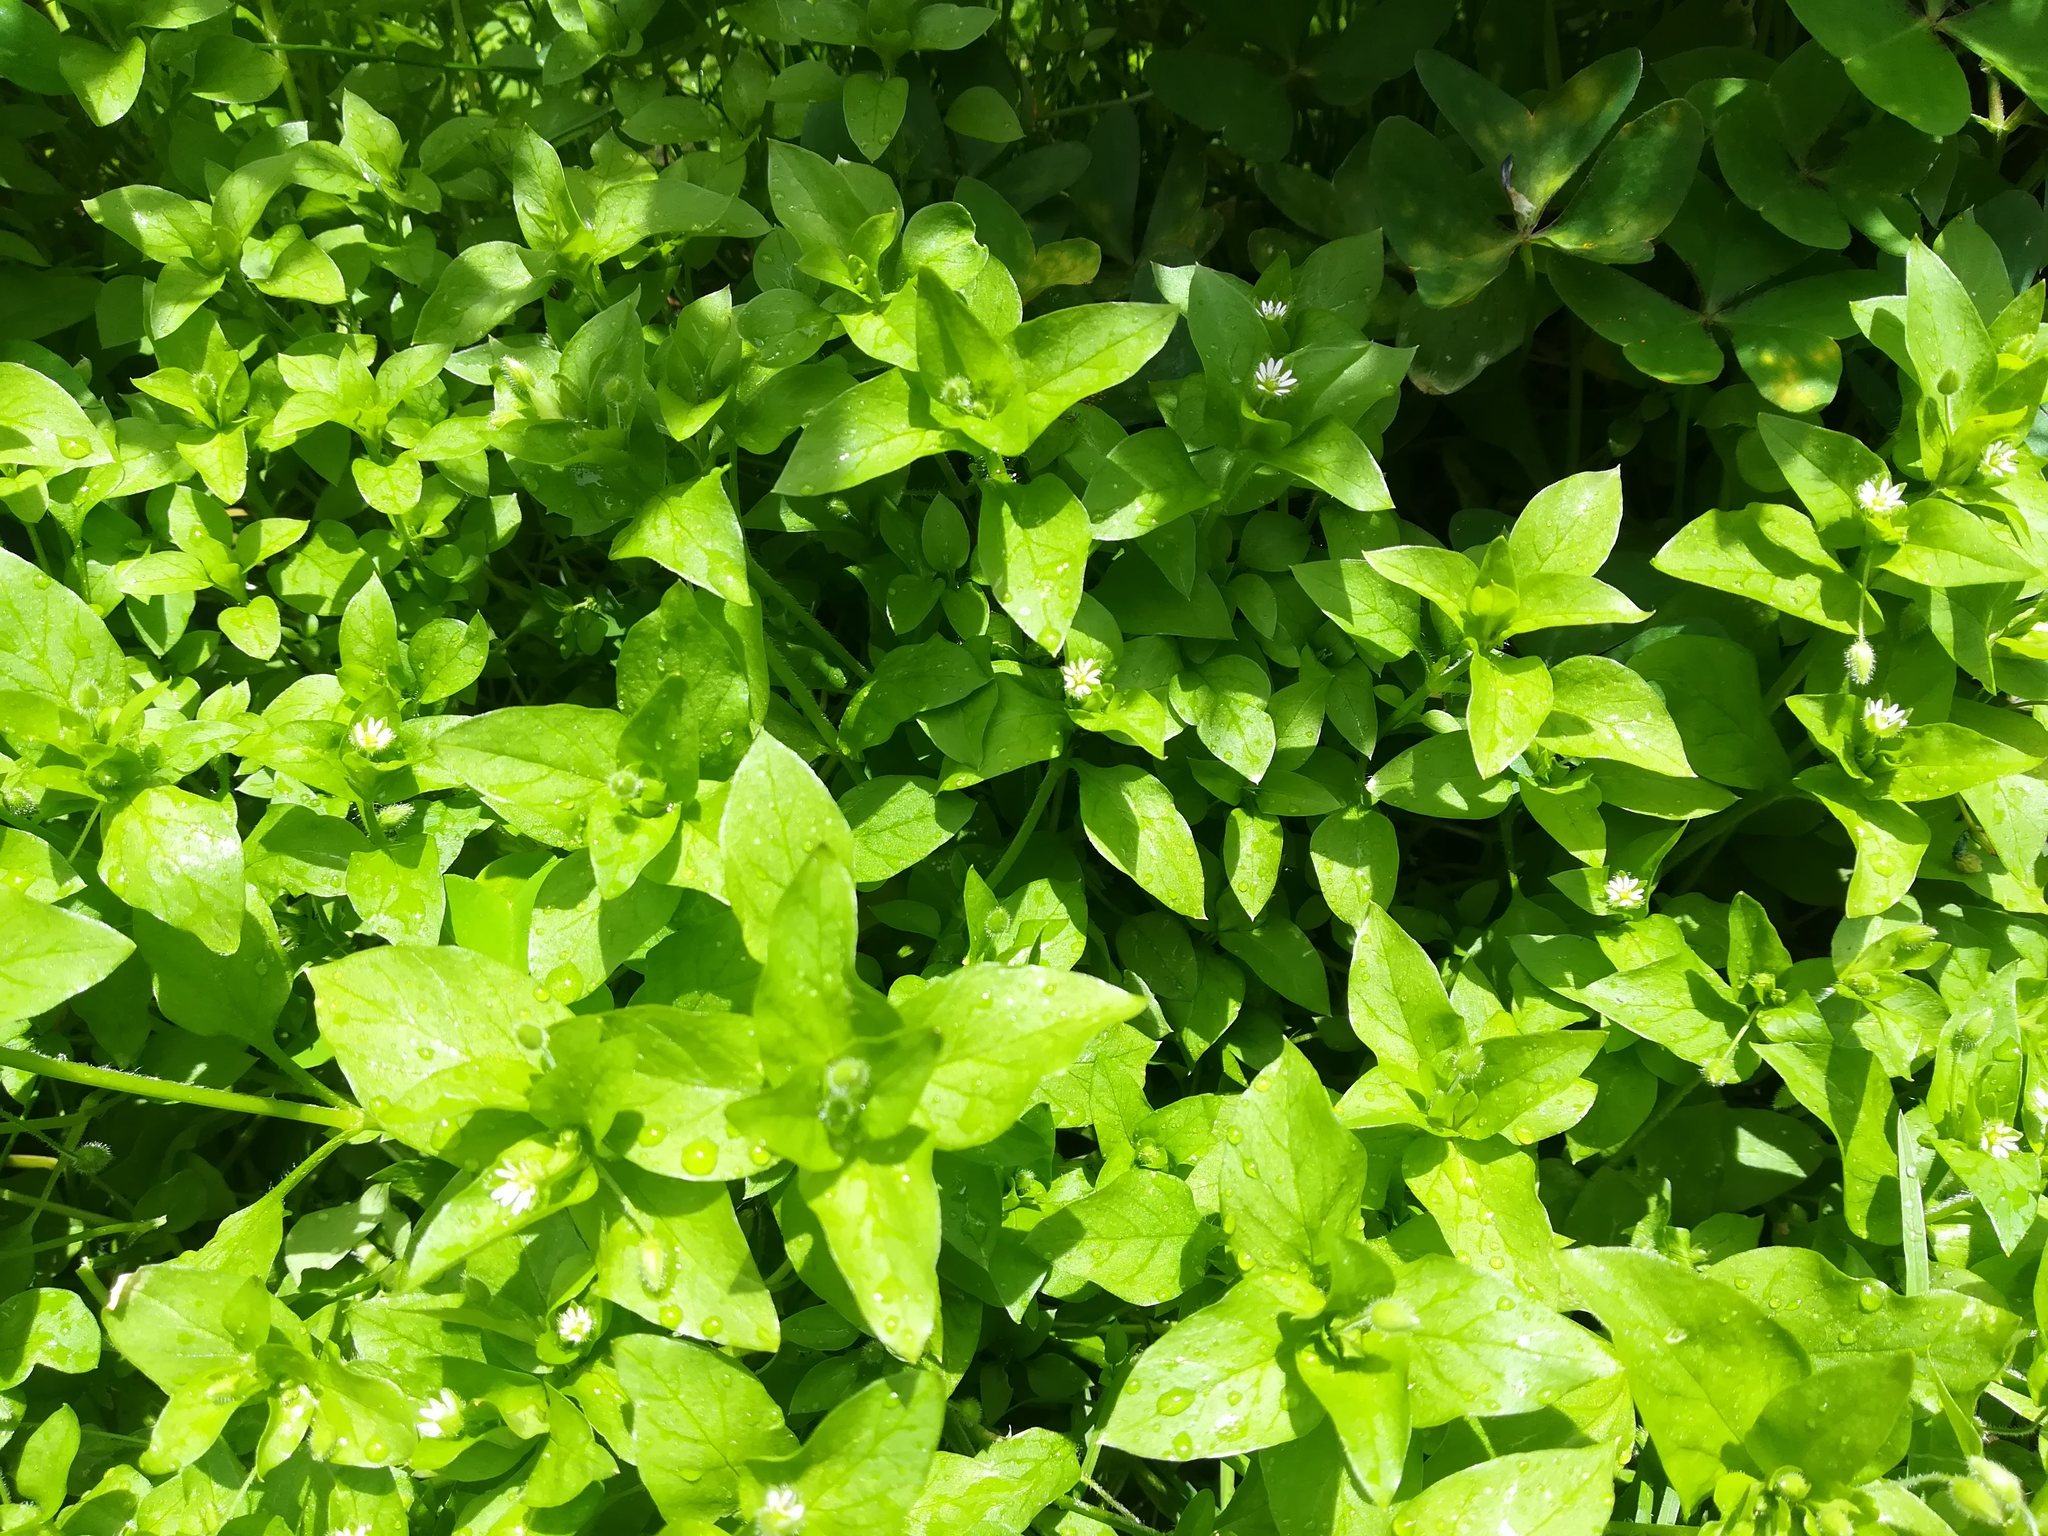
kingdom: Plantae
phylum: Tracheophyta
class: Magnoliopsida
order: Caryophyllales
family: Caryophyllaceae
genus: Stellaria
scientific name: Stellaria media
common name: Common chickweed
